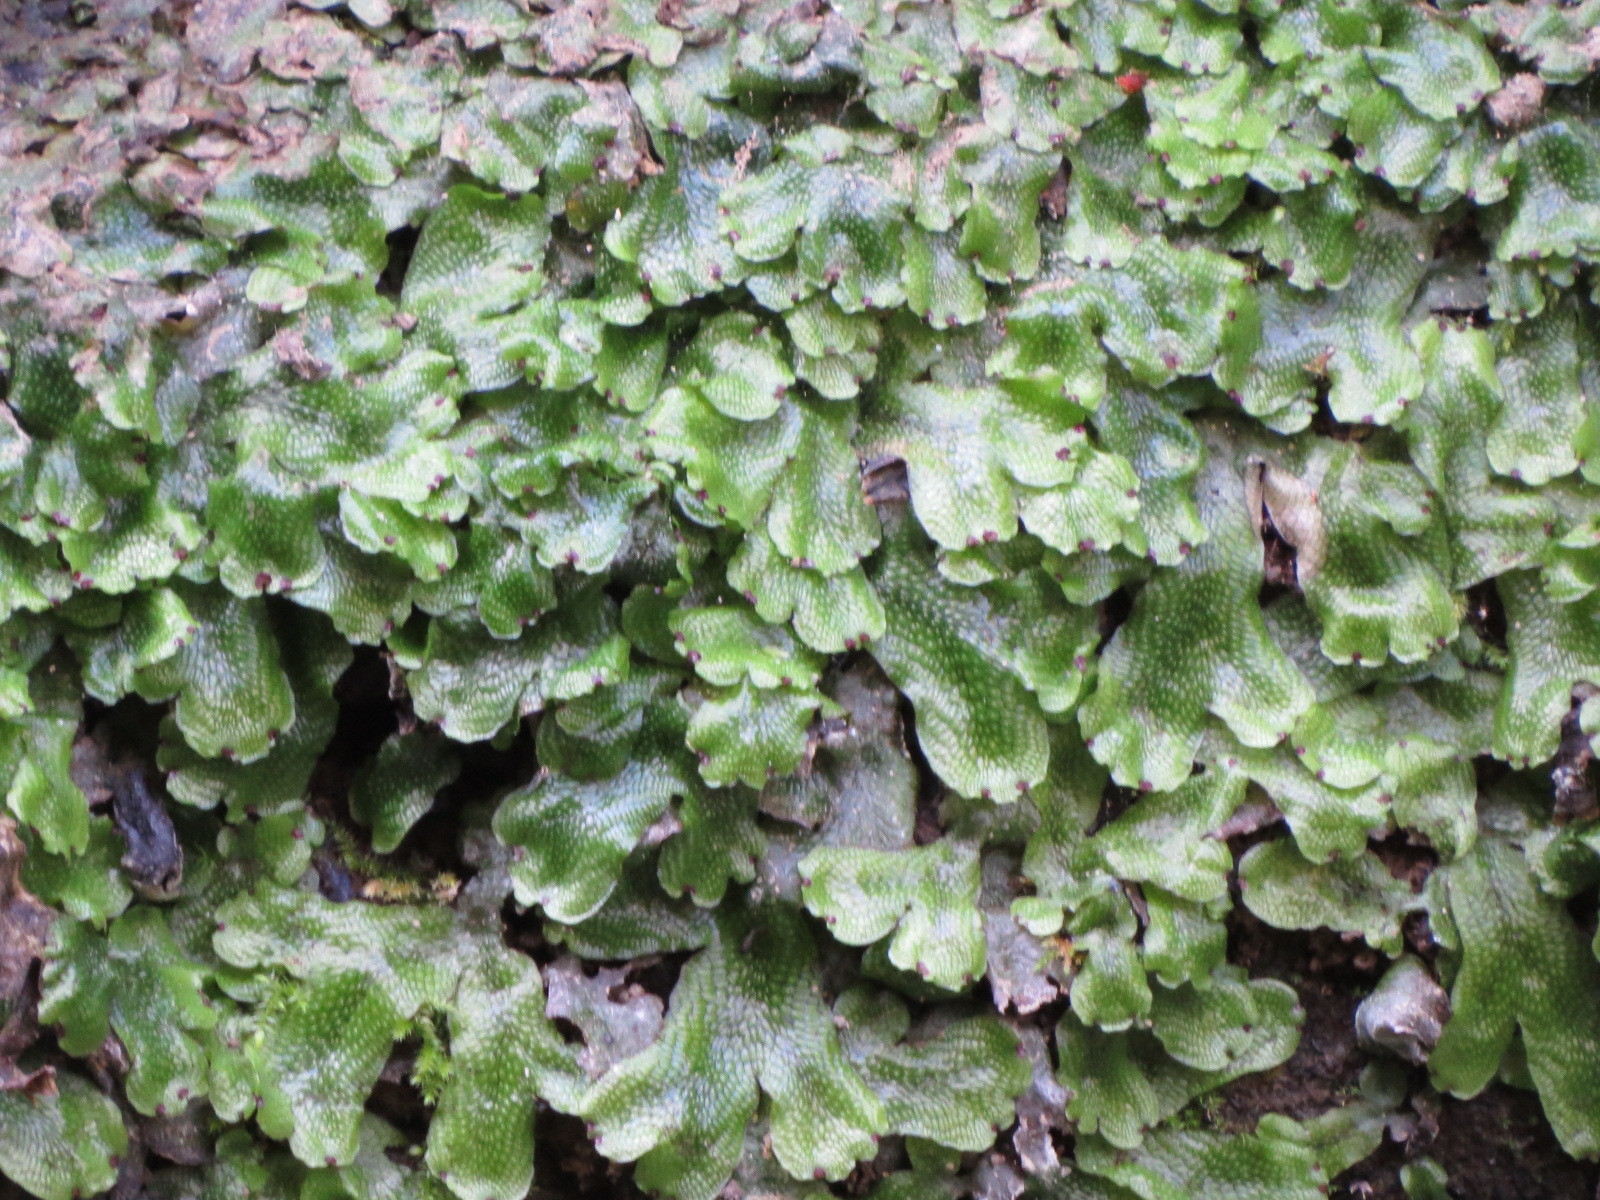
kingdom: Plantae
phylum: Marchantiophyta
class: Marchantiopsida
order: Marchantiales
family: Conocephalaceae
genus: Conocephalum
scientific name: Conocephalum salebrosum
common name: Cat-tongue liverwort
